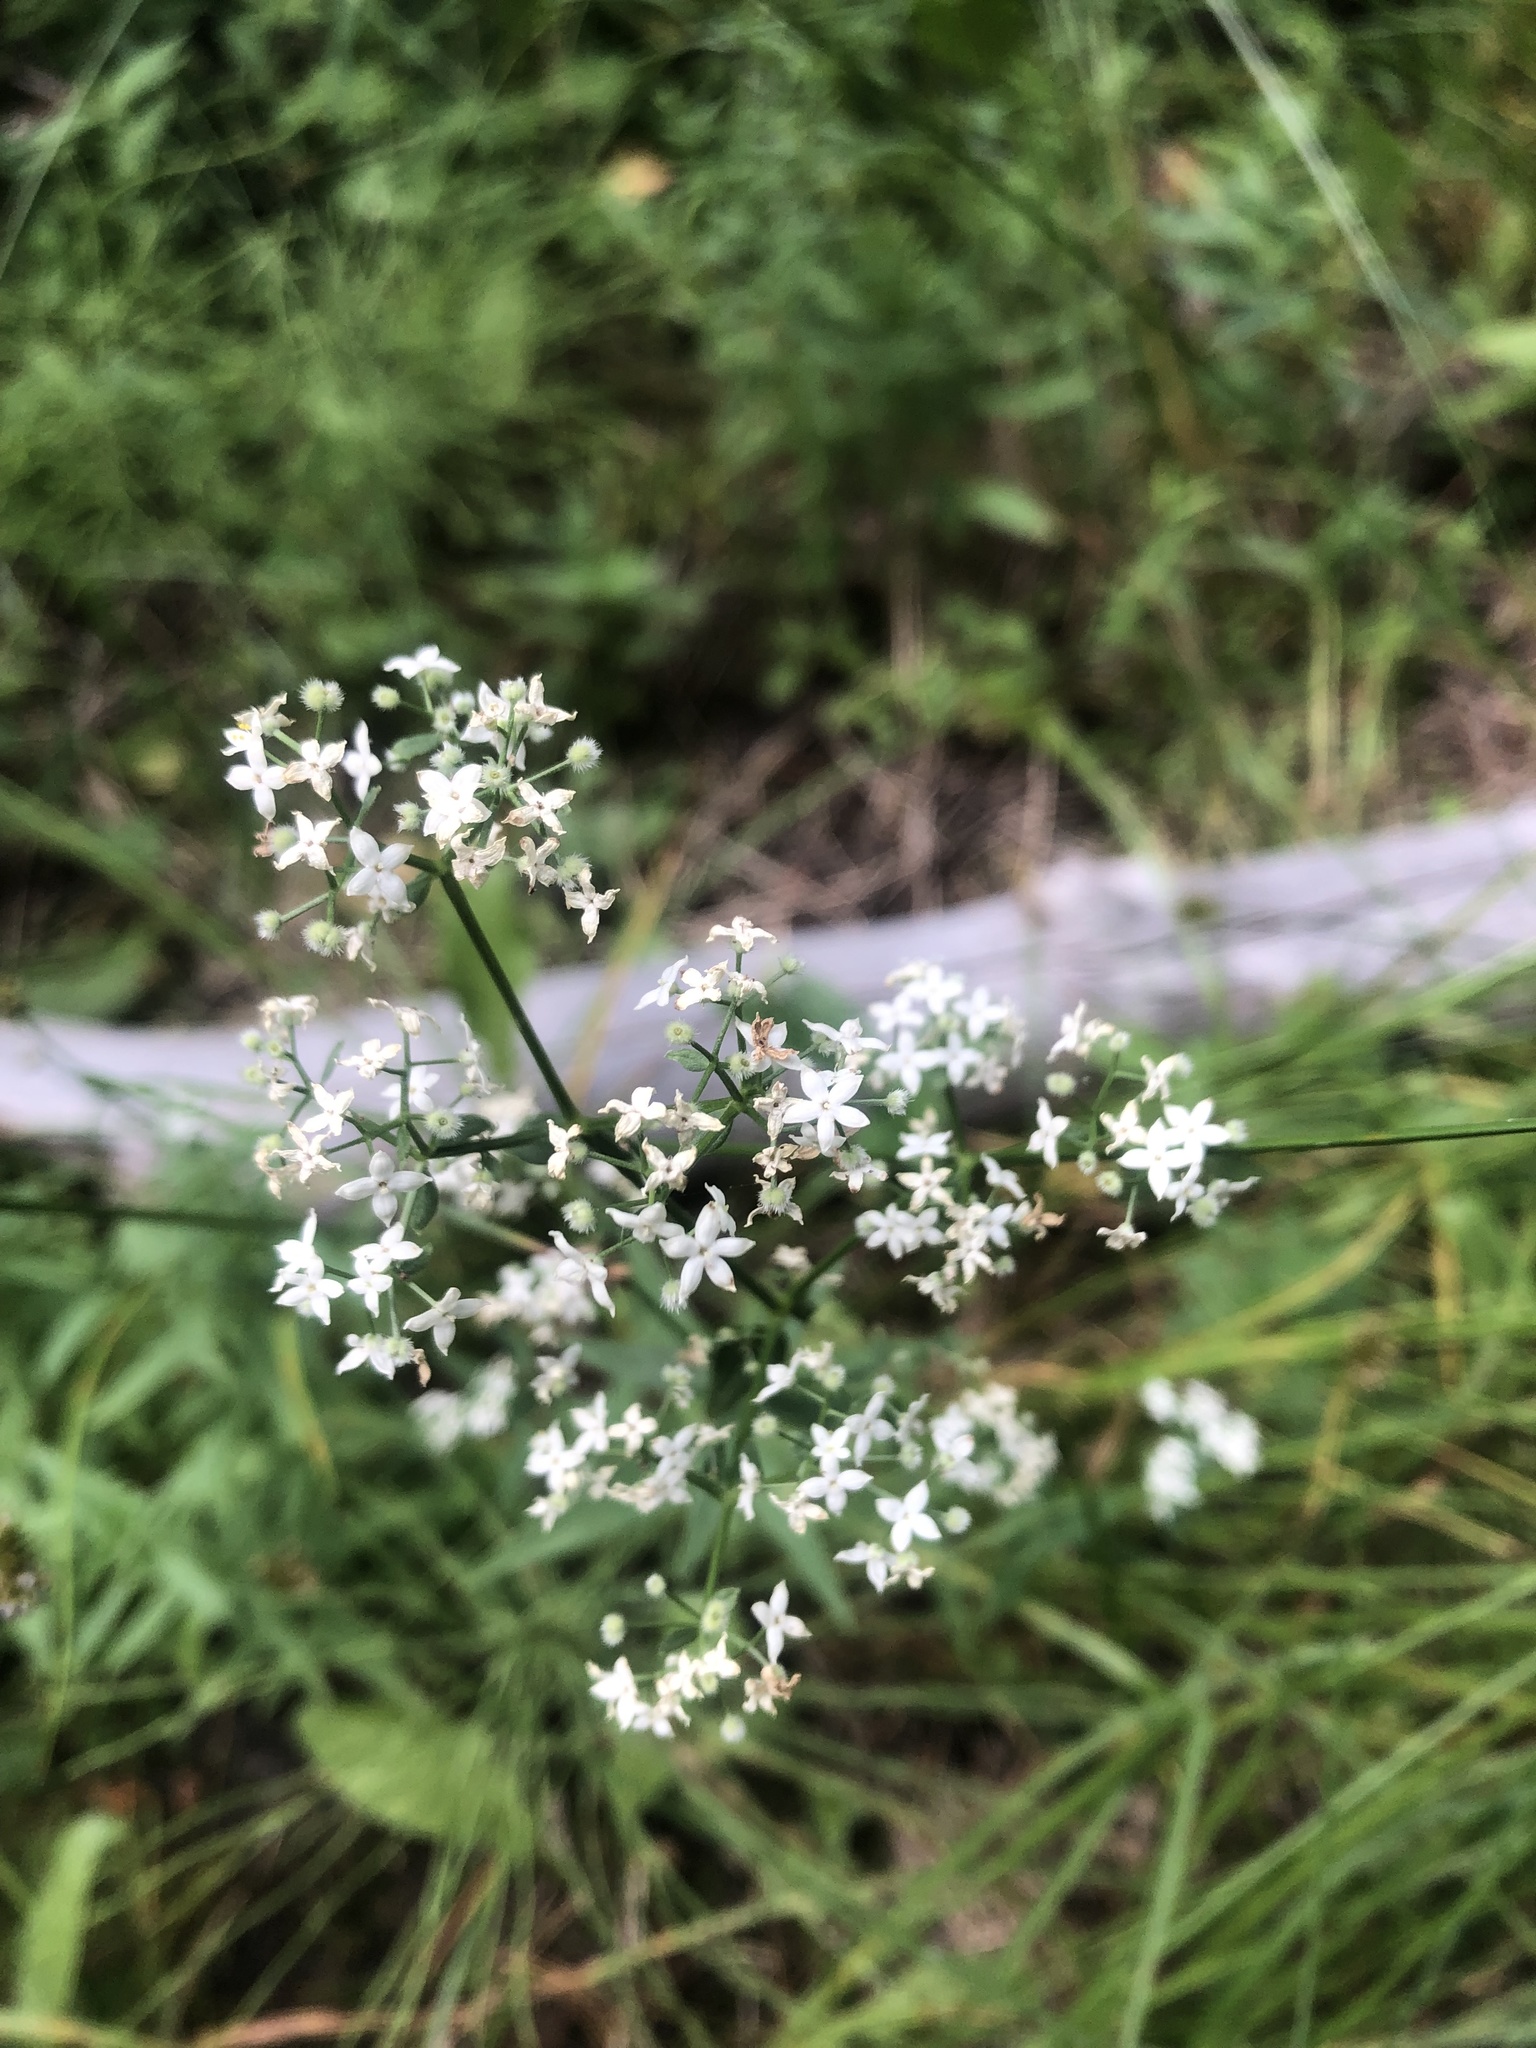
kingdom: Plantae
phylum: Tracheophyta
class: Magnoliopsida
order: Gentianales
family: Rubiaceae
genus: Galium
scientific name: Galium boreale
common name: Northern bedstraw
